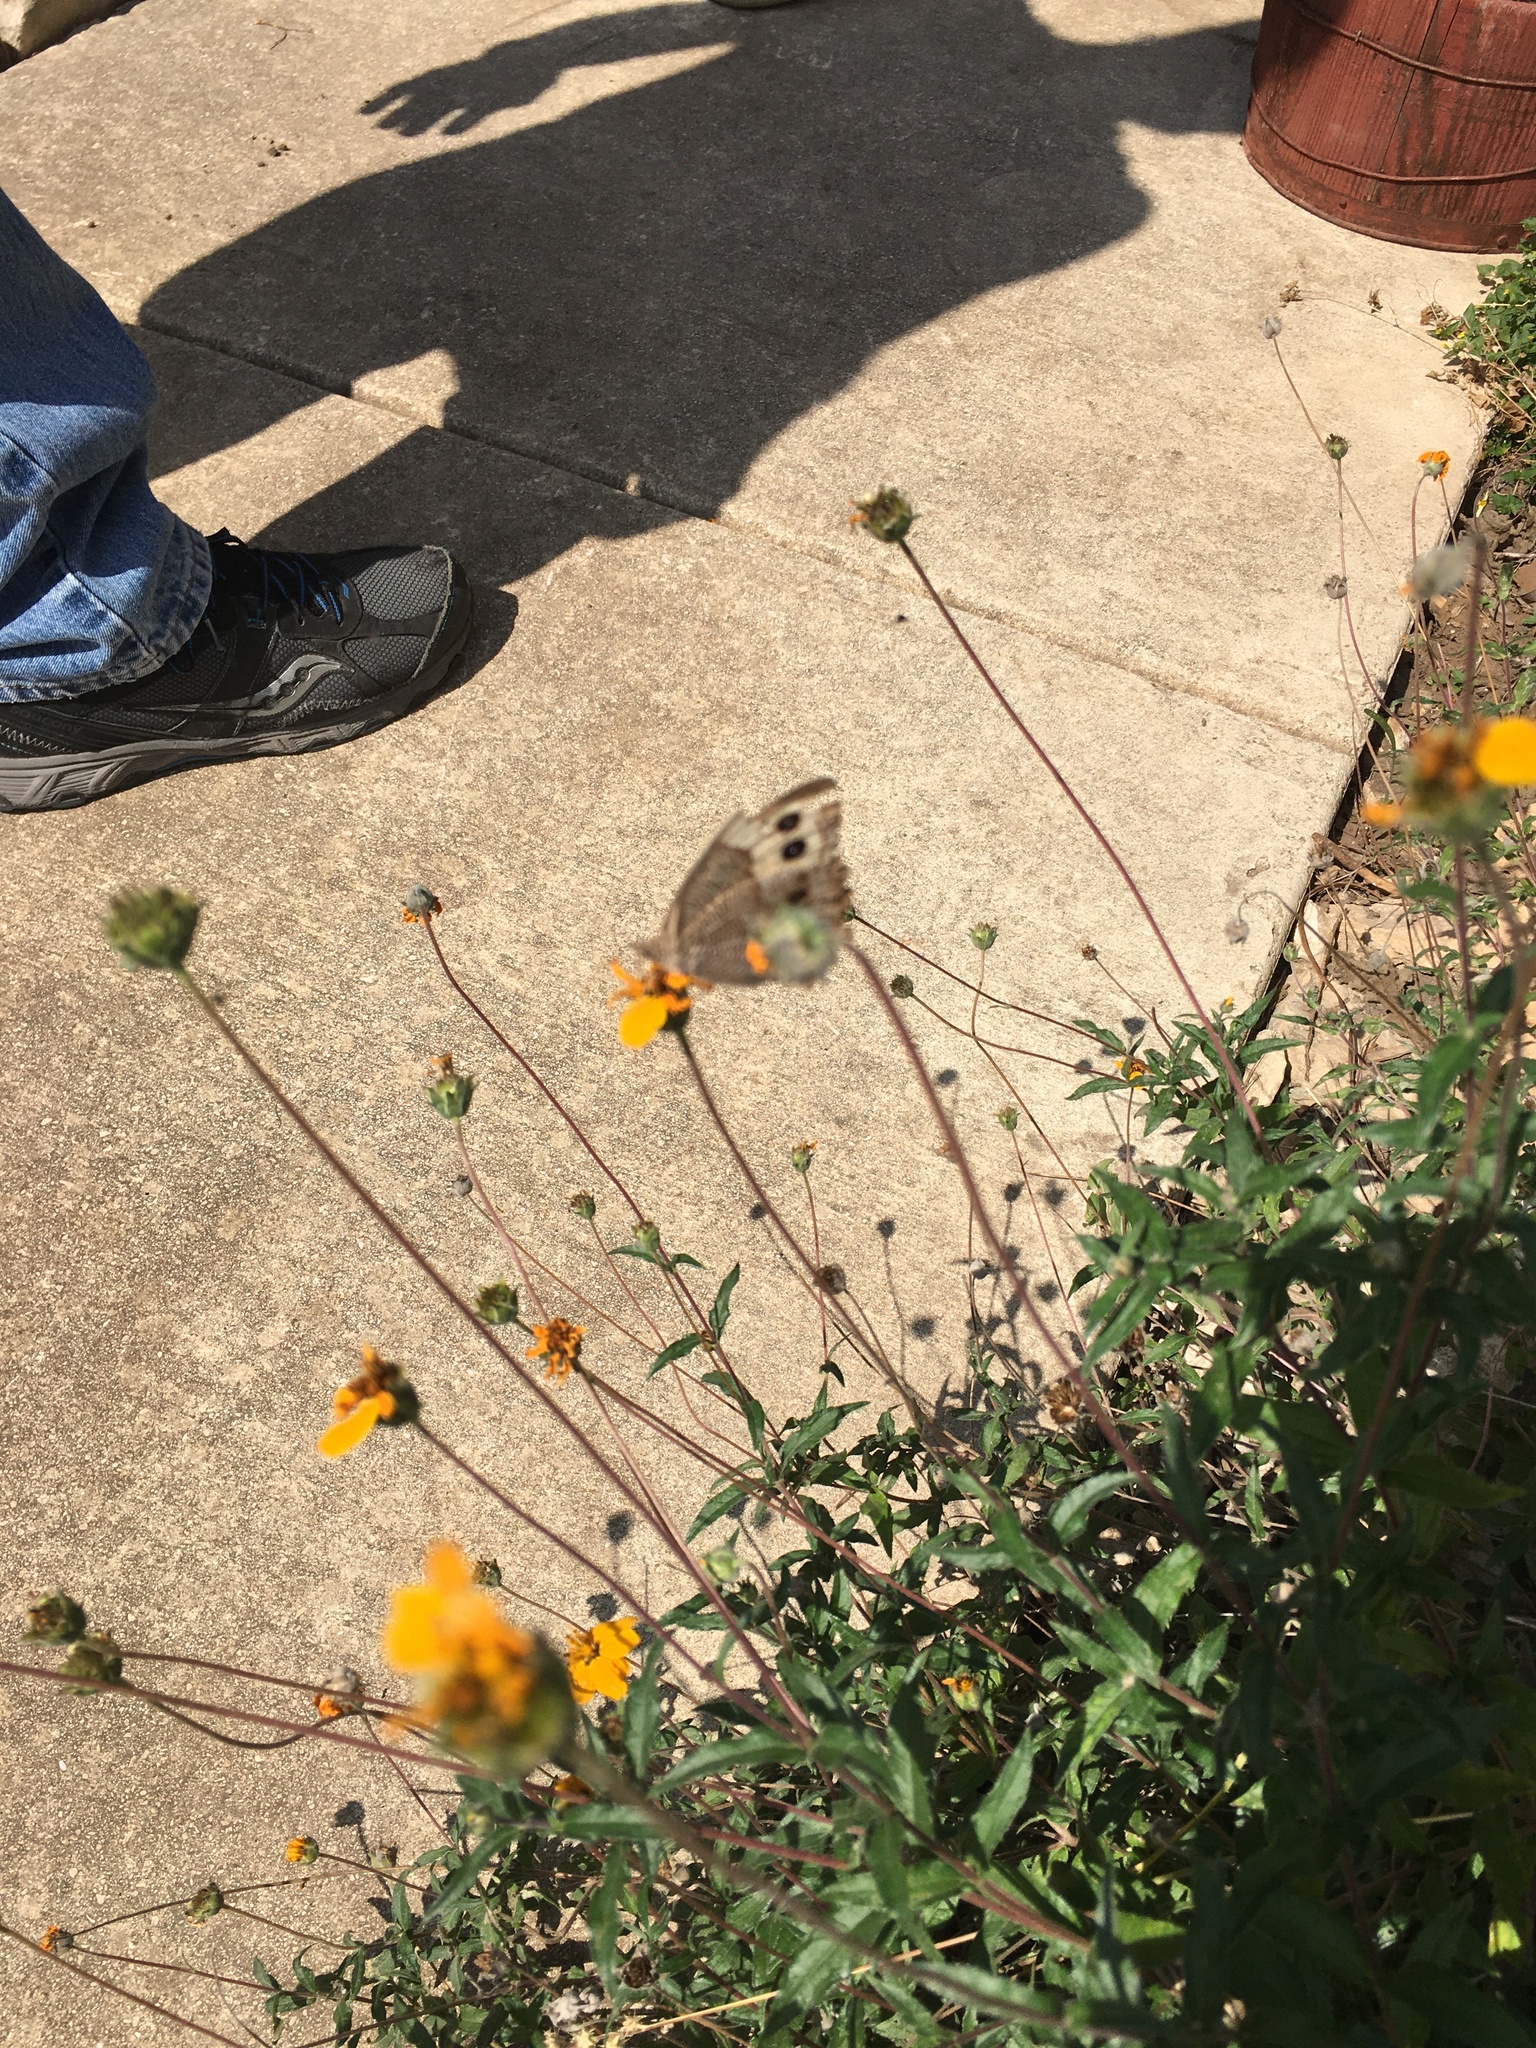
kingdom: Animalia
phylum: Arthropoda
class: Insecta
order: Lepidoptera
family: Nymphalidae
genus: Cercyonis
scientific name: Cercyonis pegala
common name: Common wood-nymph
